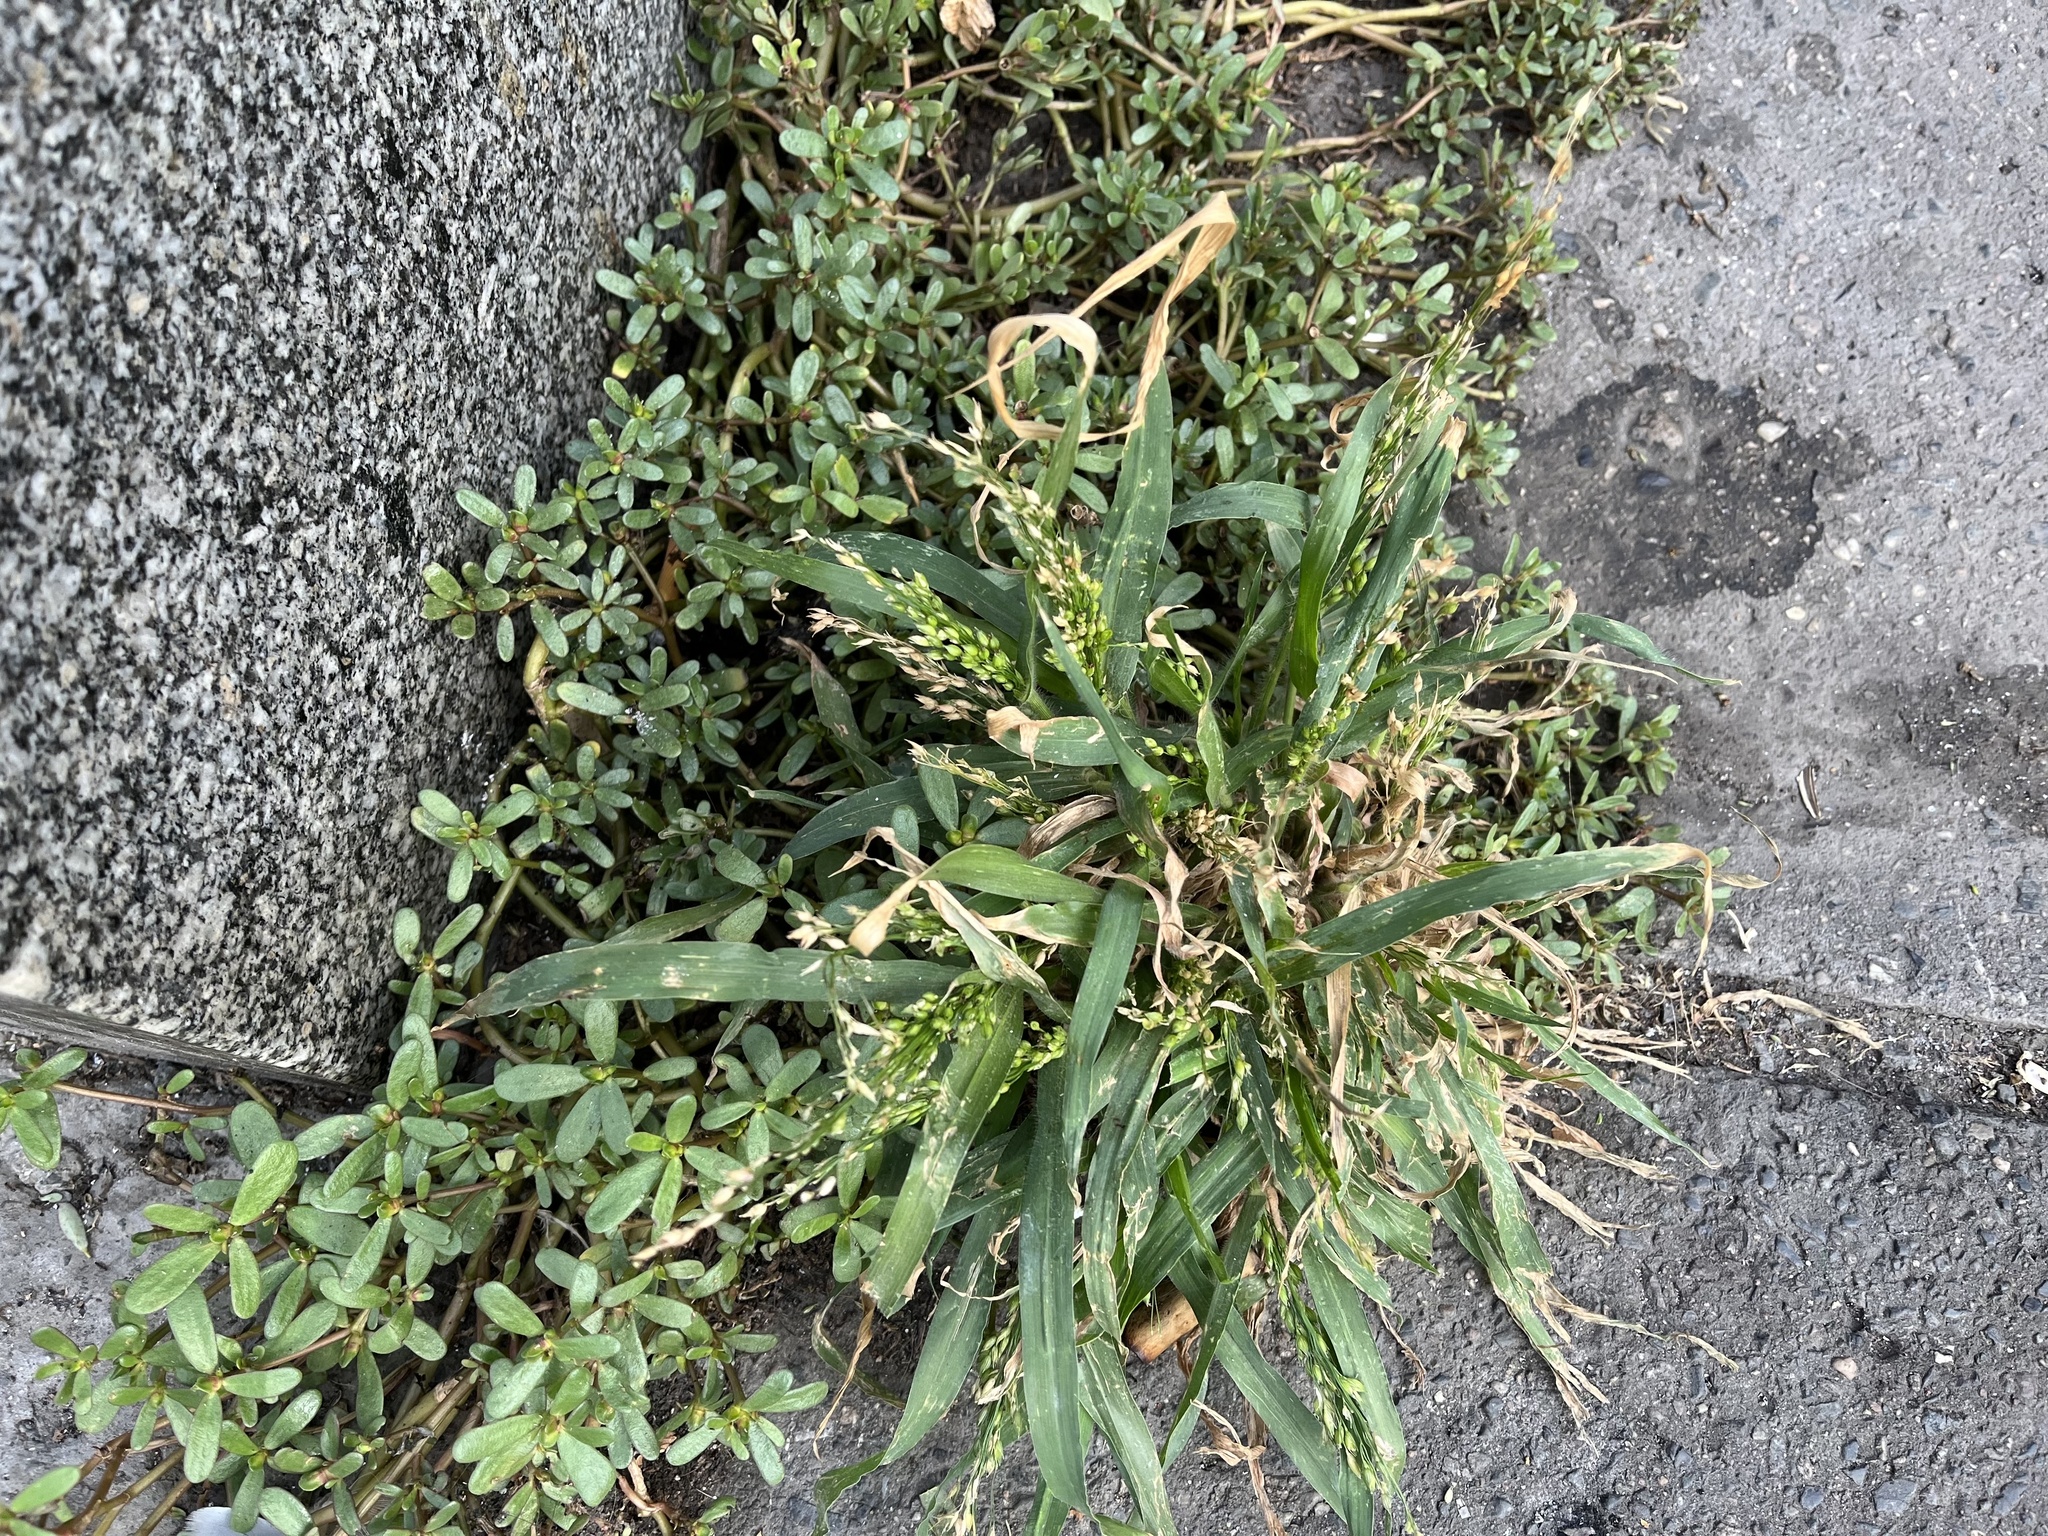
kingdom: Plantae
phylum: Tracheophyta
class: Liliopsida
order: Poales
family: Poaceae
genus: Panicum
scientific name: Panicum miliaceum
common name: Common millet
